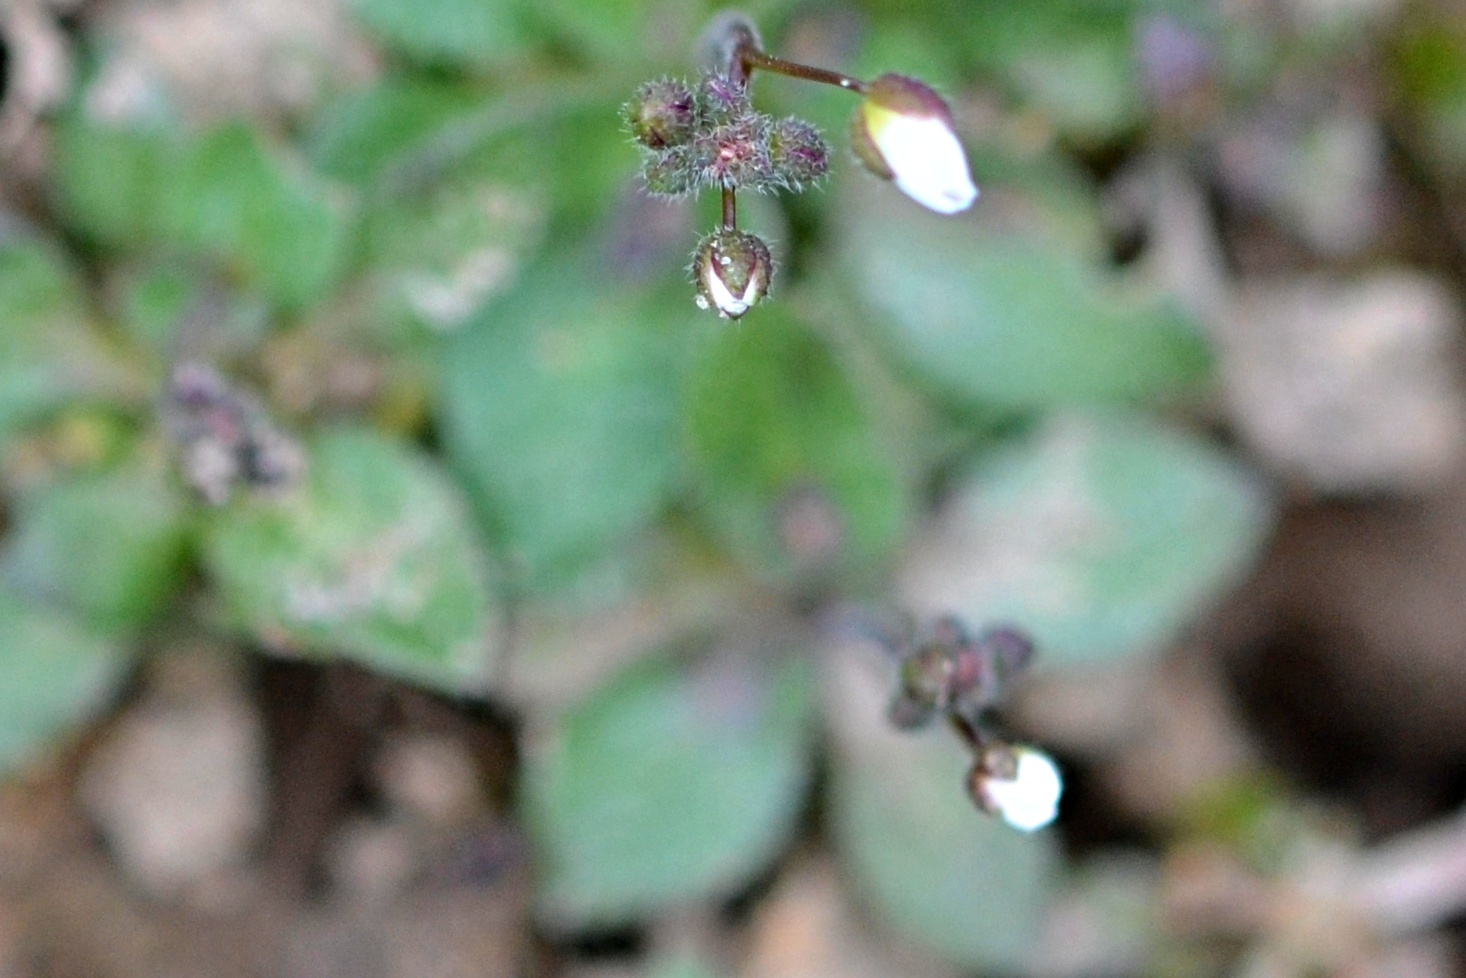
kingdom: Plantae
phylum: Tracheophyta
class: Magnoliopsida
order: Brassicales
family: Brassicaceae
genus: Draba
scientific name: Draba verna
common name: Spring draba
